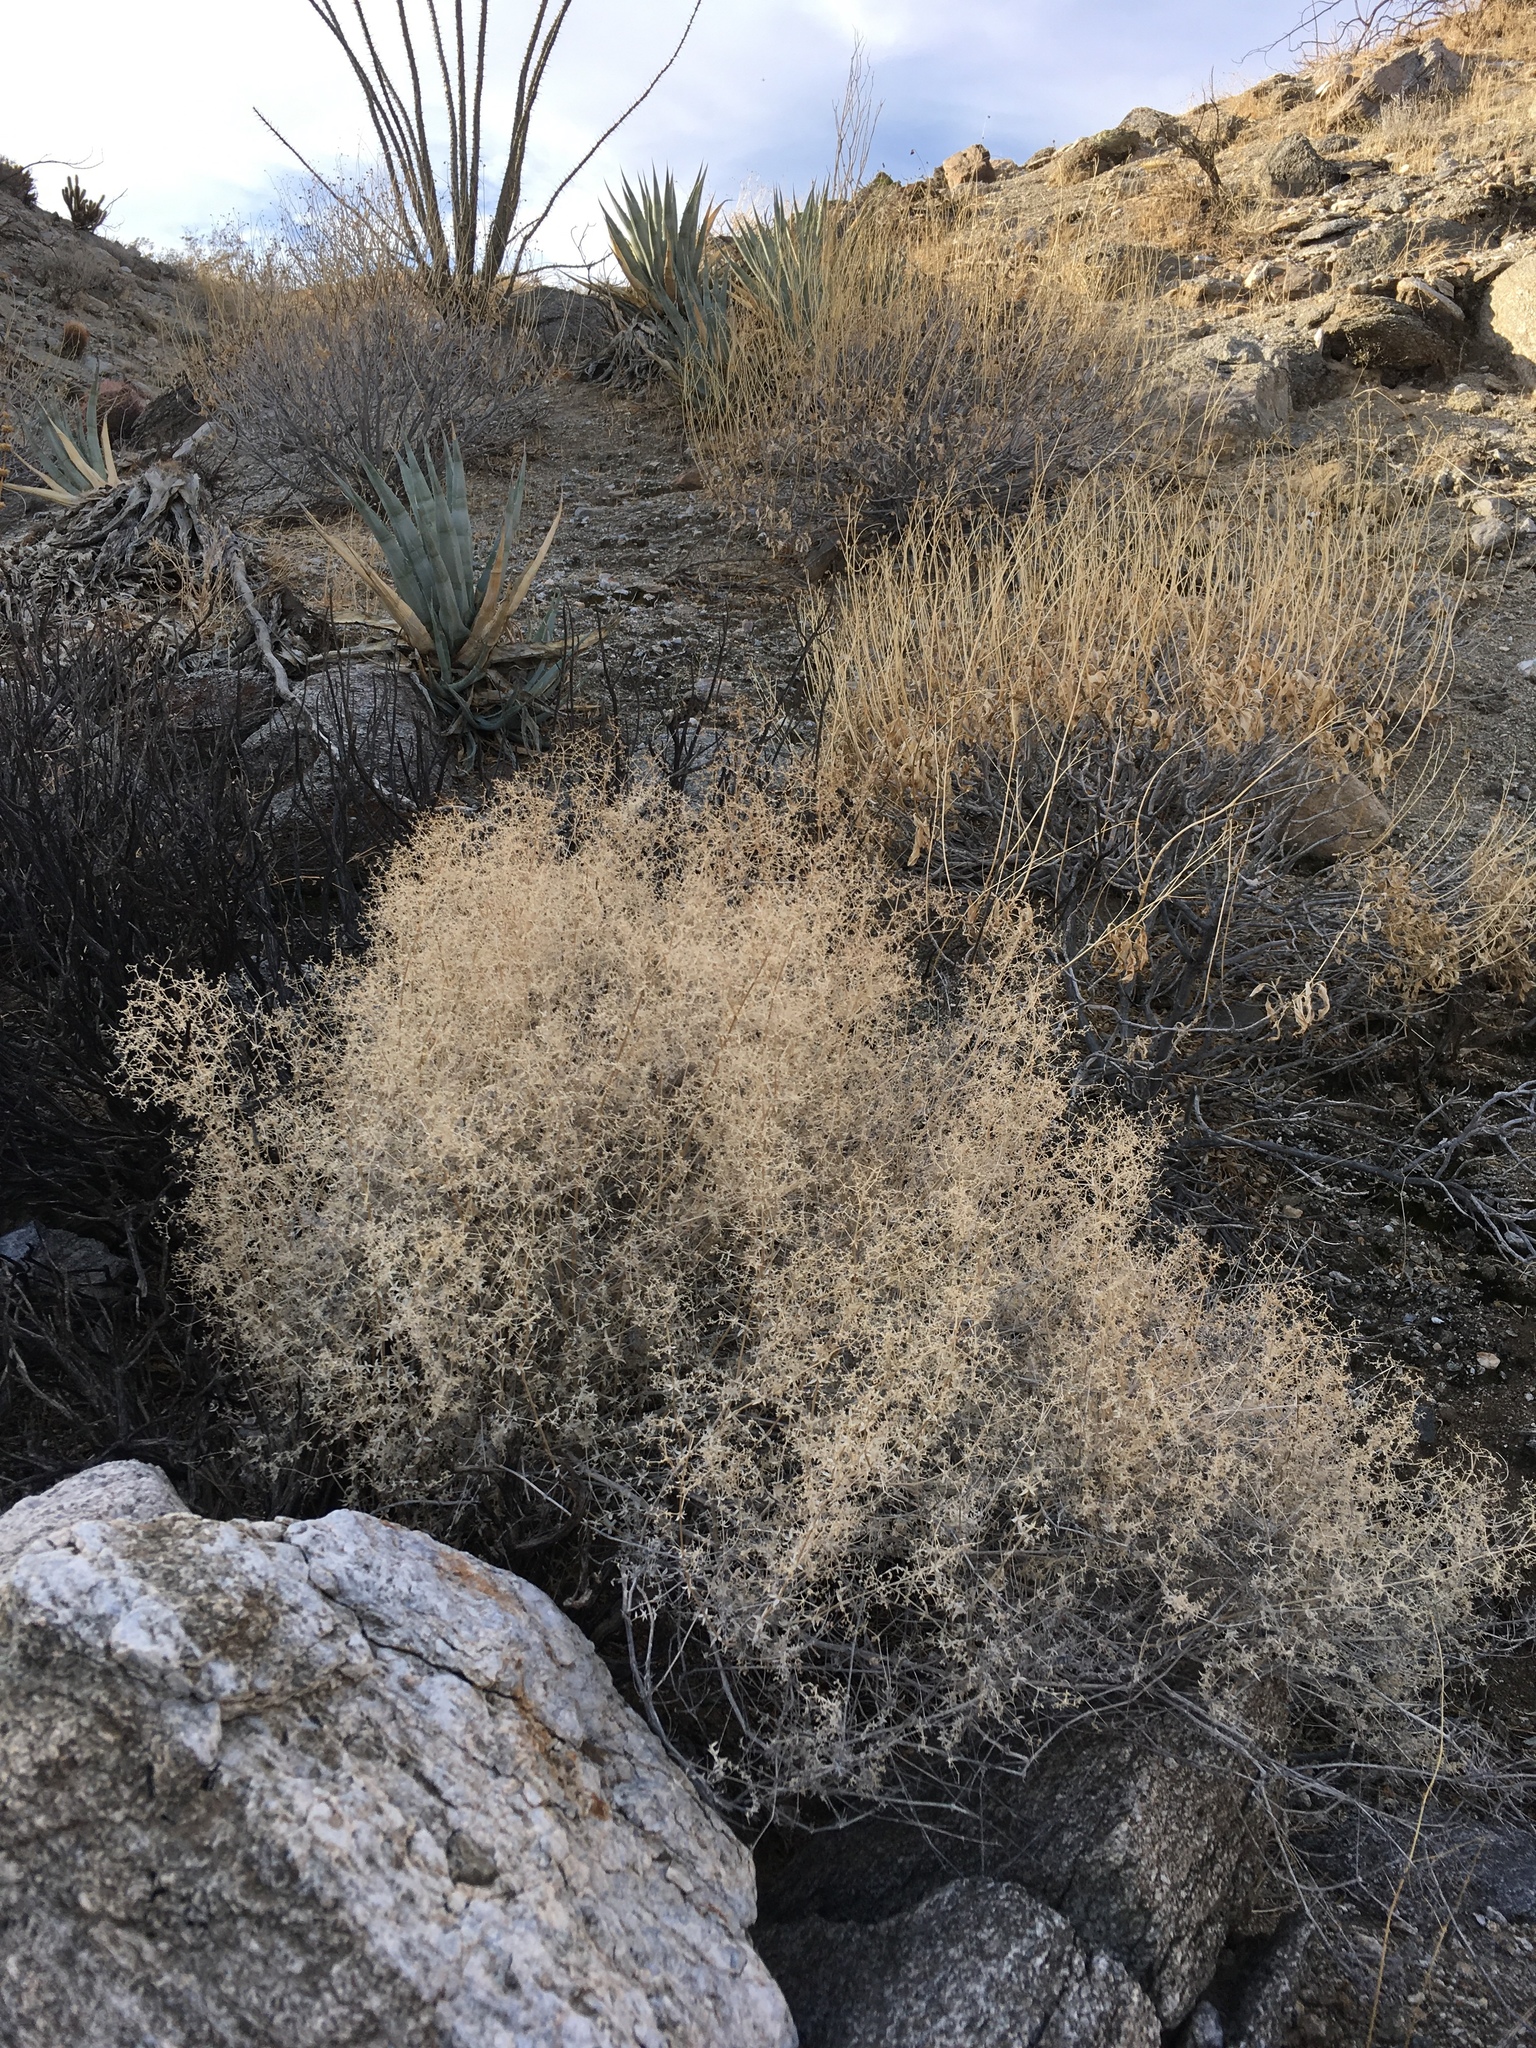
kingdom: Plantae
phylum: Tracheophyta
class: Magnoliopsida
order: Gentianales
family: Rubiaceae
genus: Galium
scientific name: Galium stellatum
